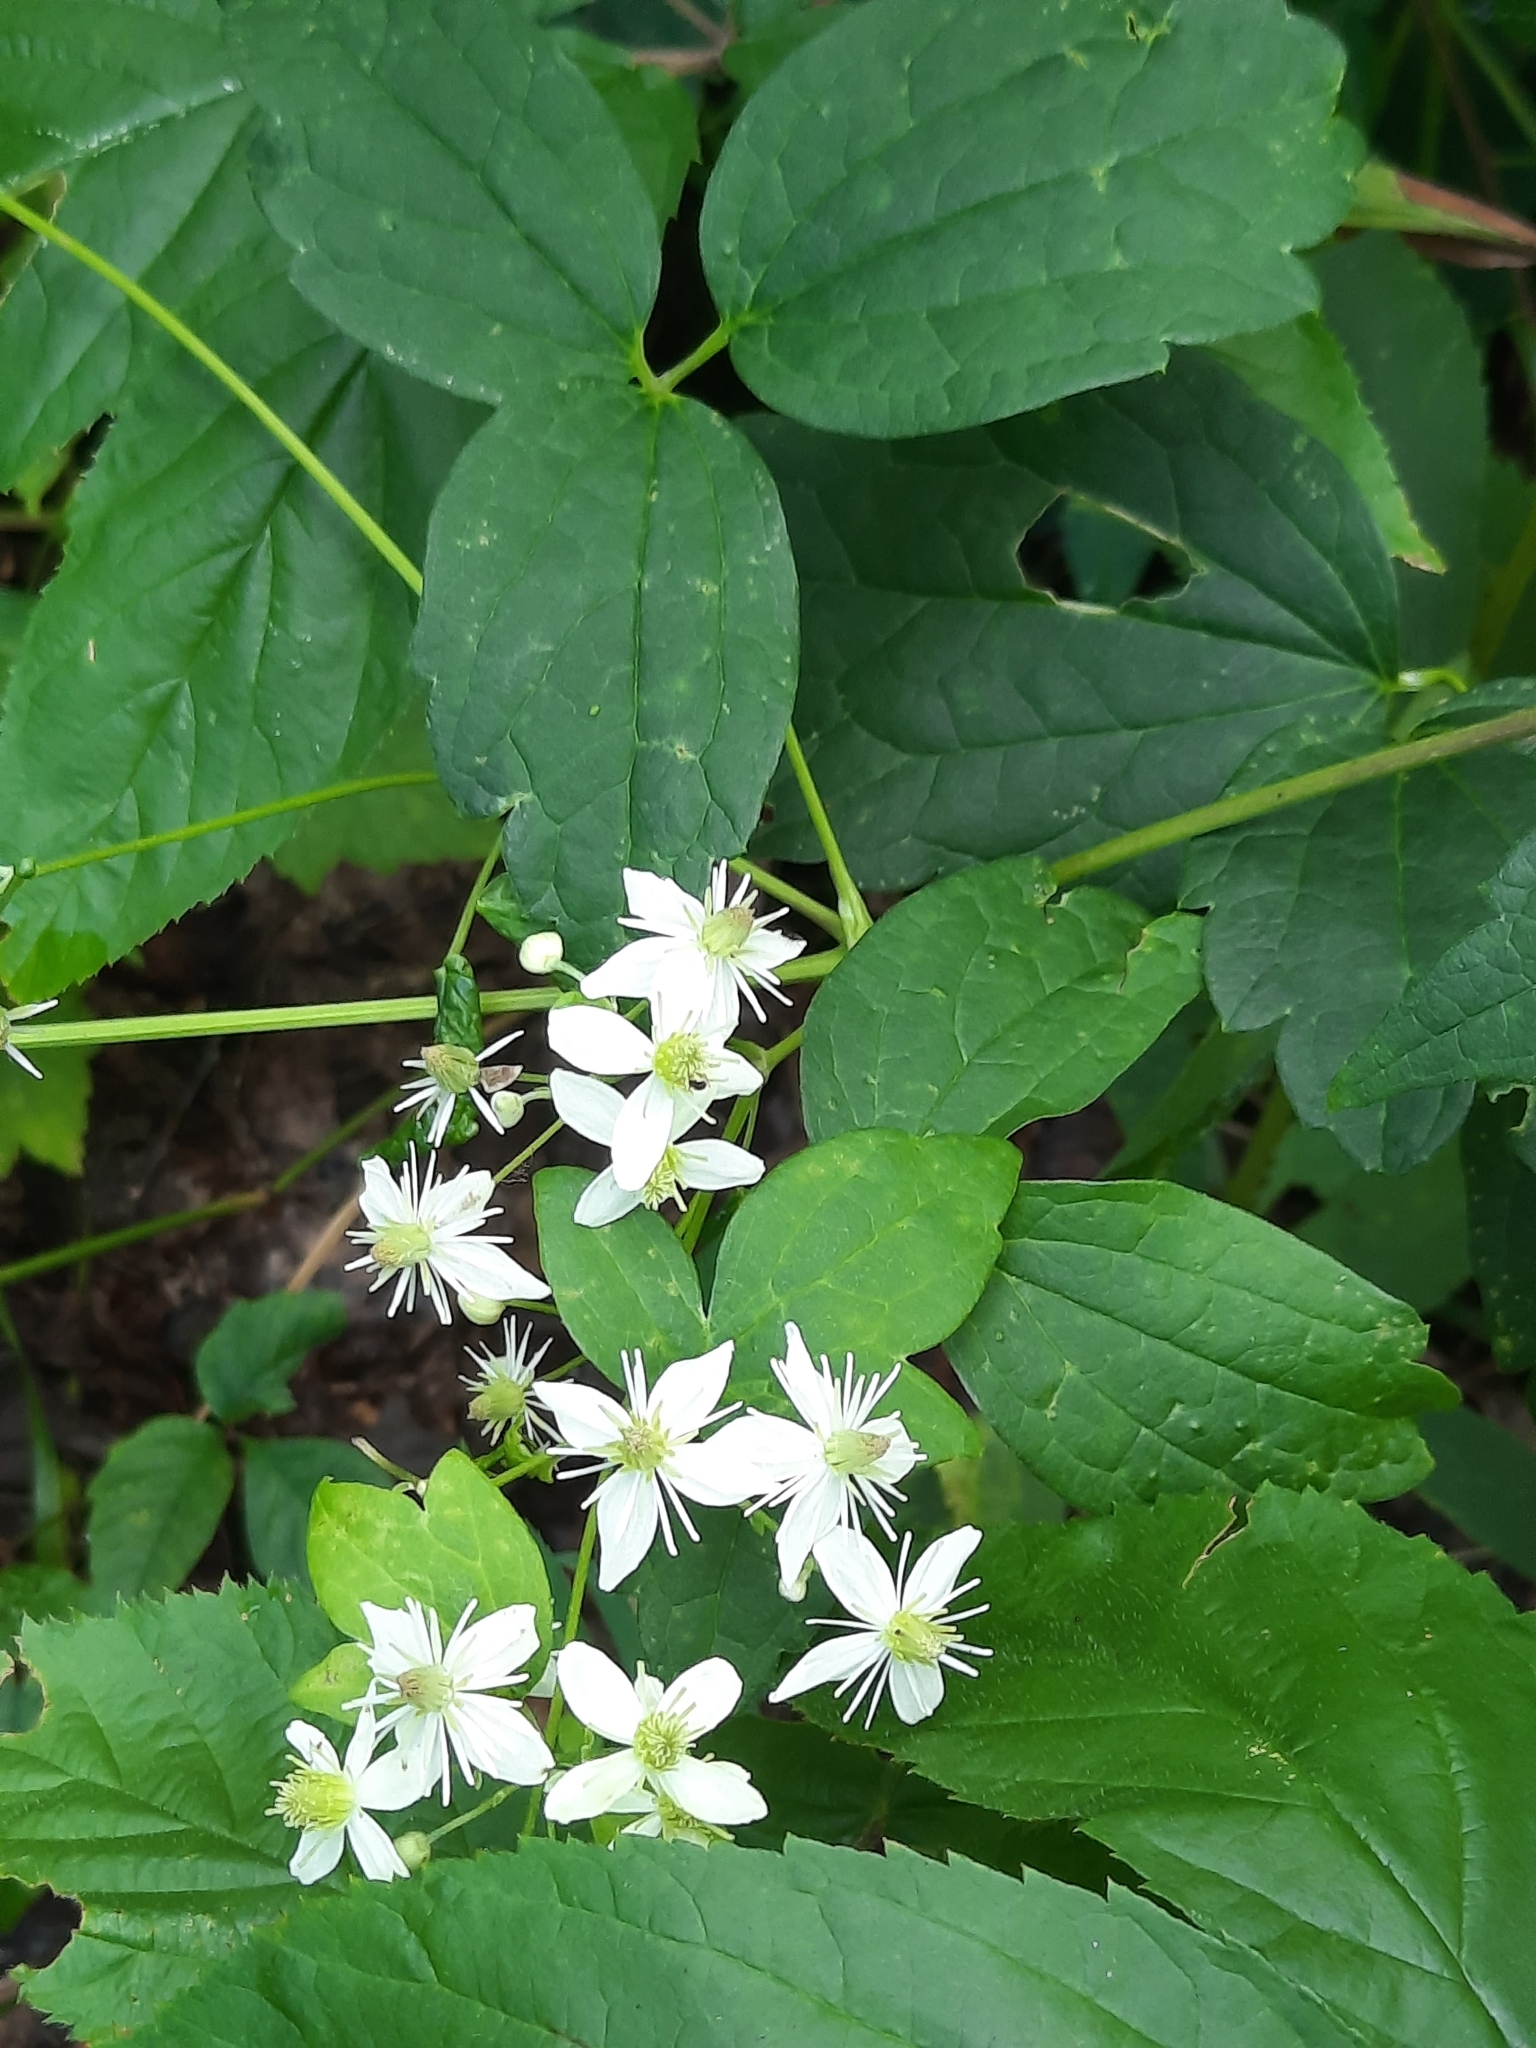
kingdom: Plantae
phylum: Tracheophyta
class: Magnoliopsida
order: Ranunculales
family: Ranunculaceae
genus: Clematis
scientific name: Clematis virginiana
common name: Virgin's-bower
